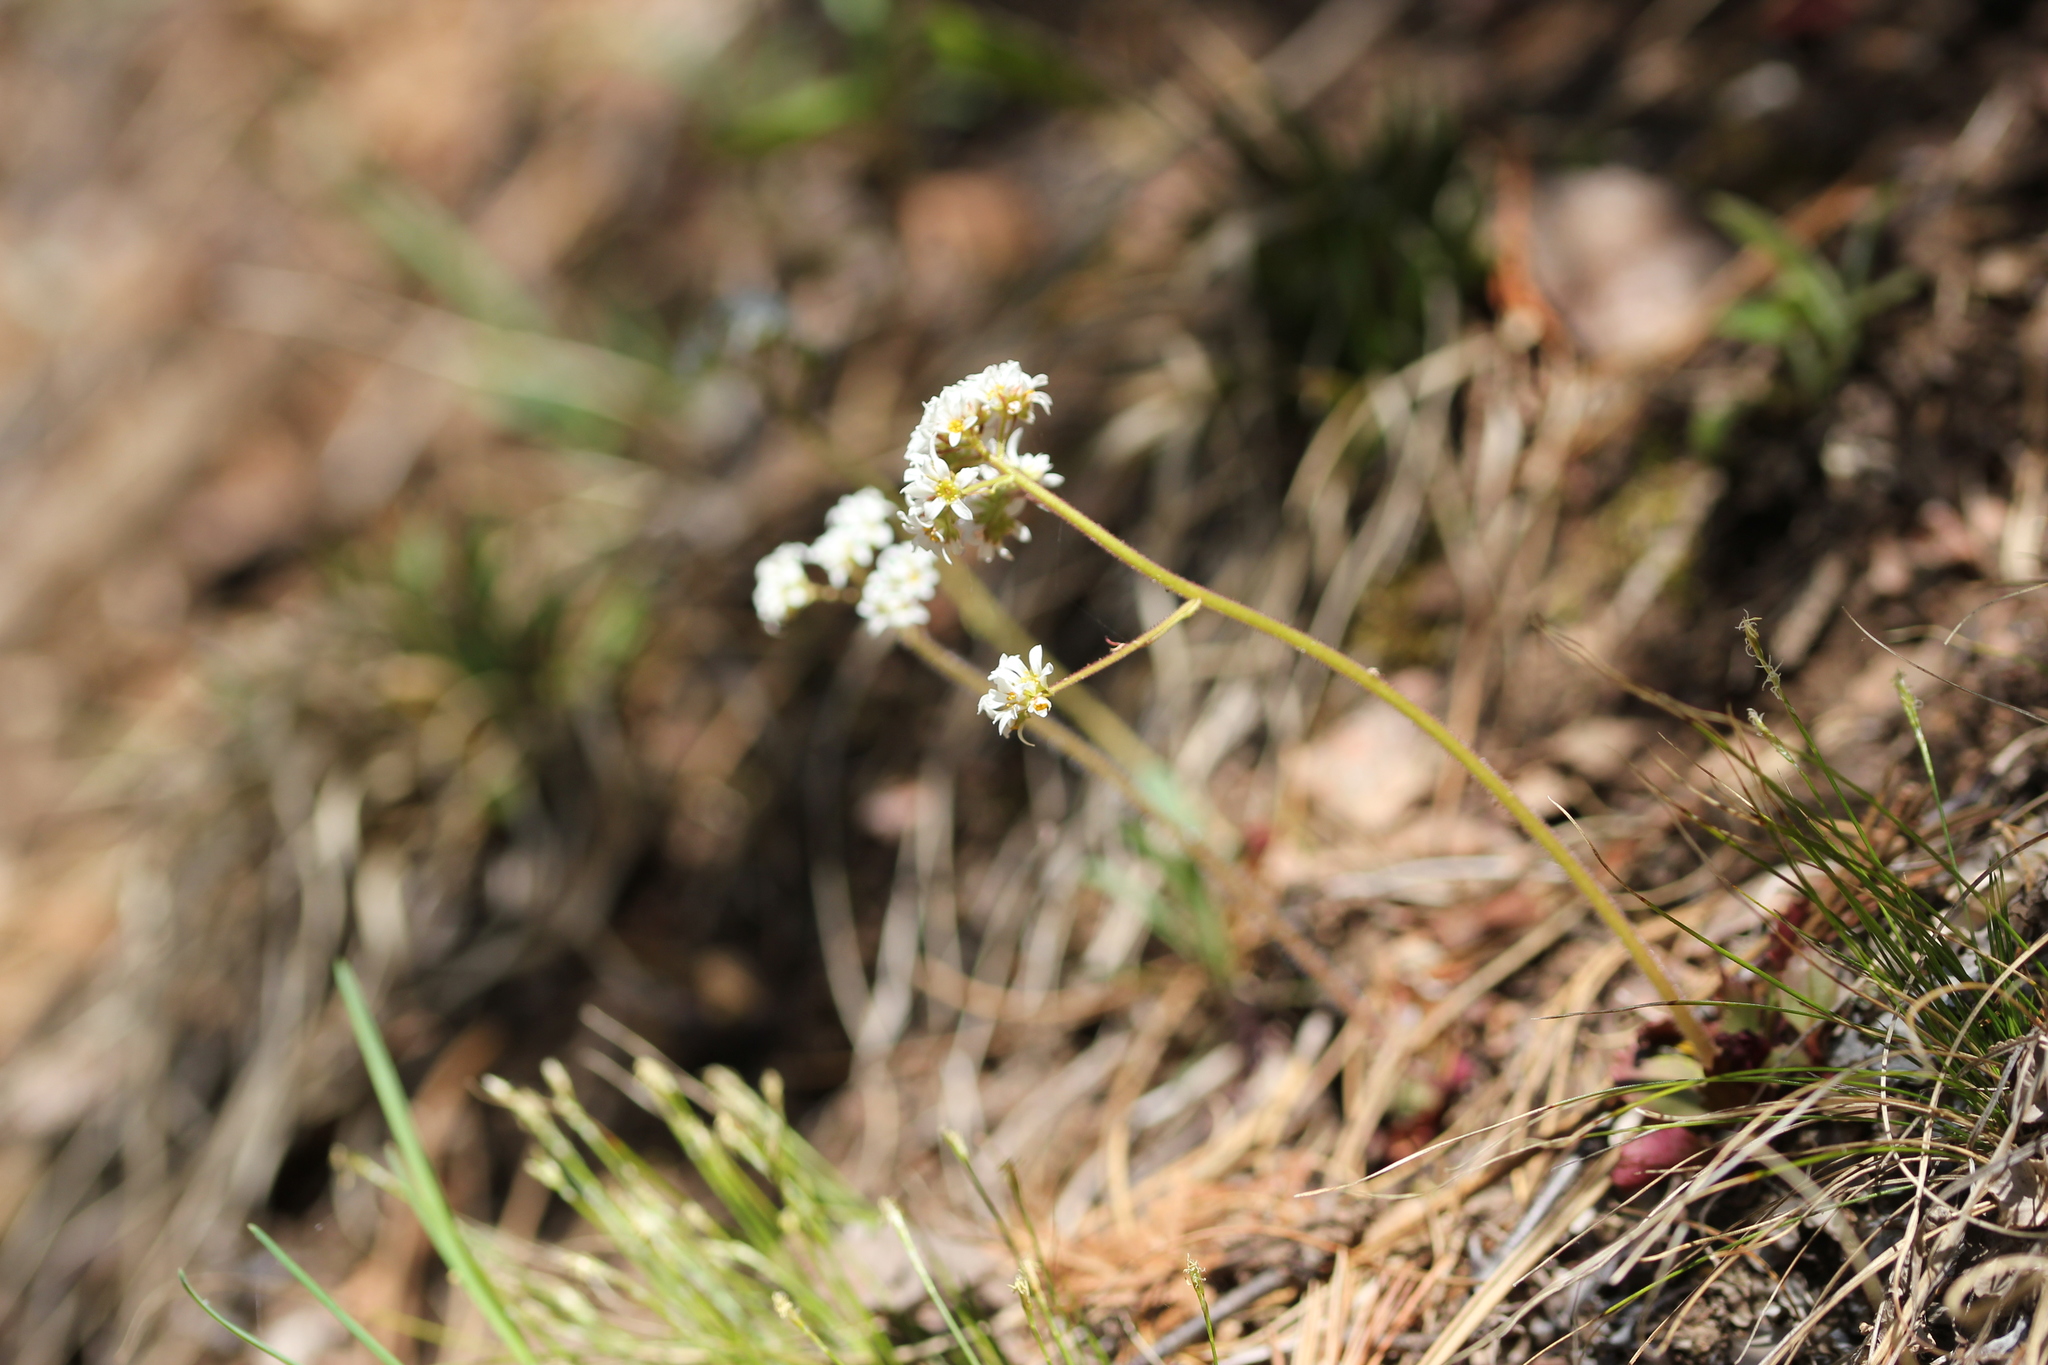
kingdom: Plantae
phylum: Tracheophyta
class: Magnoliopsida
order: Saxifragales
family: Saxifragaceae
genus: Micranthes
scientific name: Micranthes virginiensis
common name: Early saxifrage
